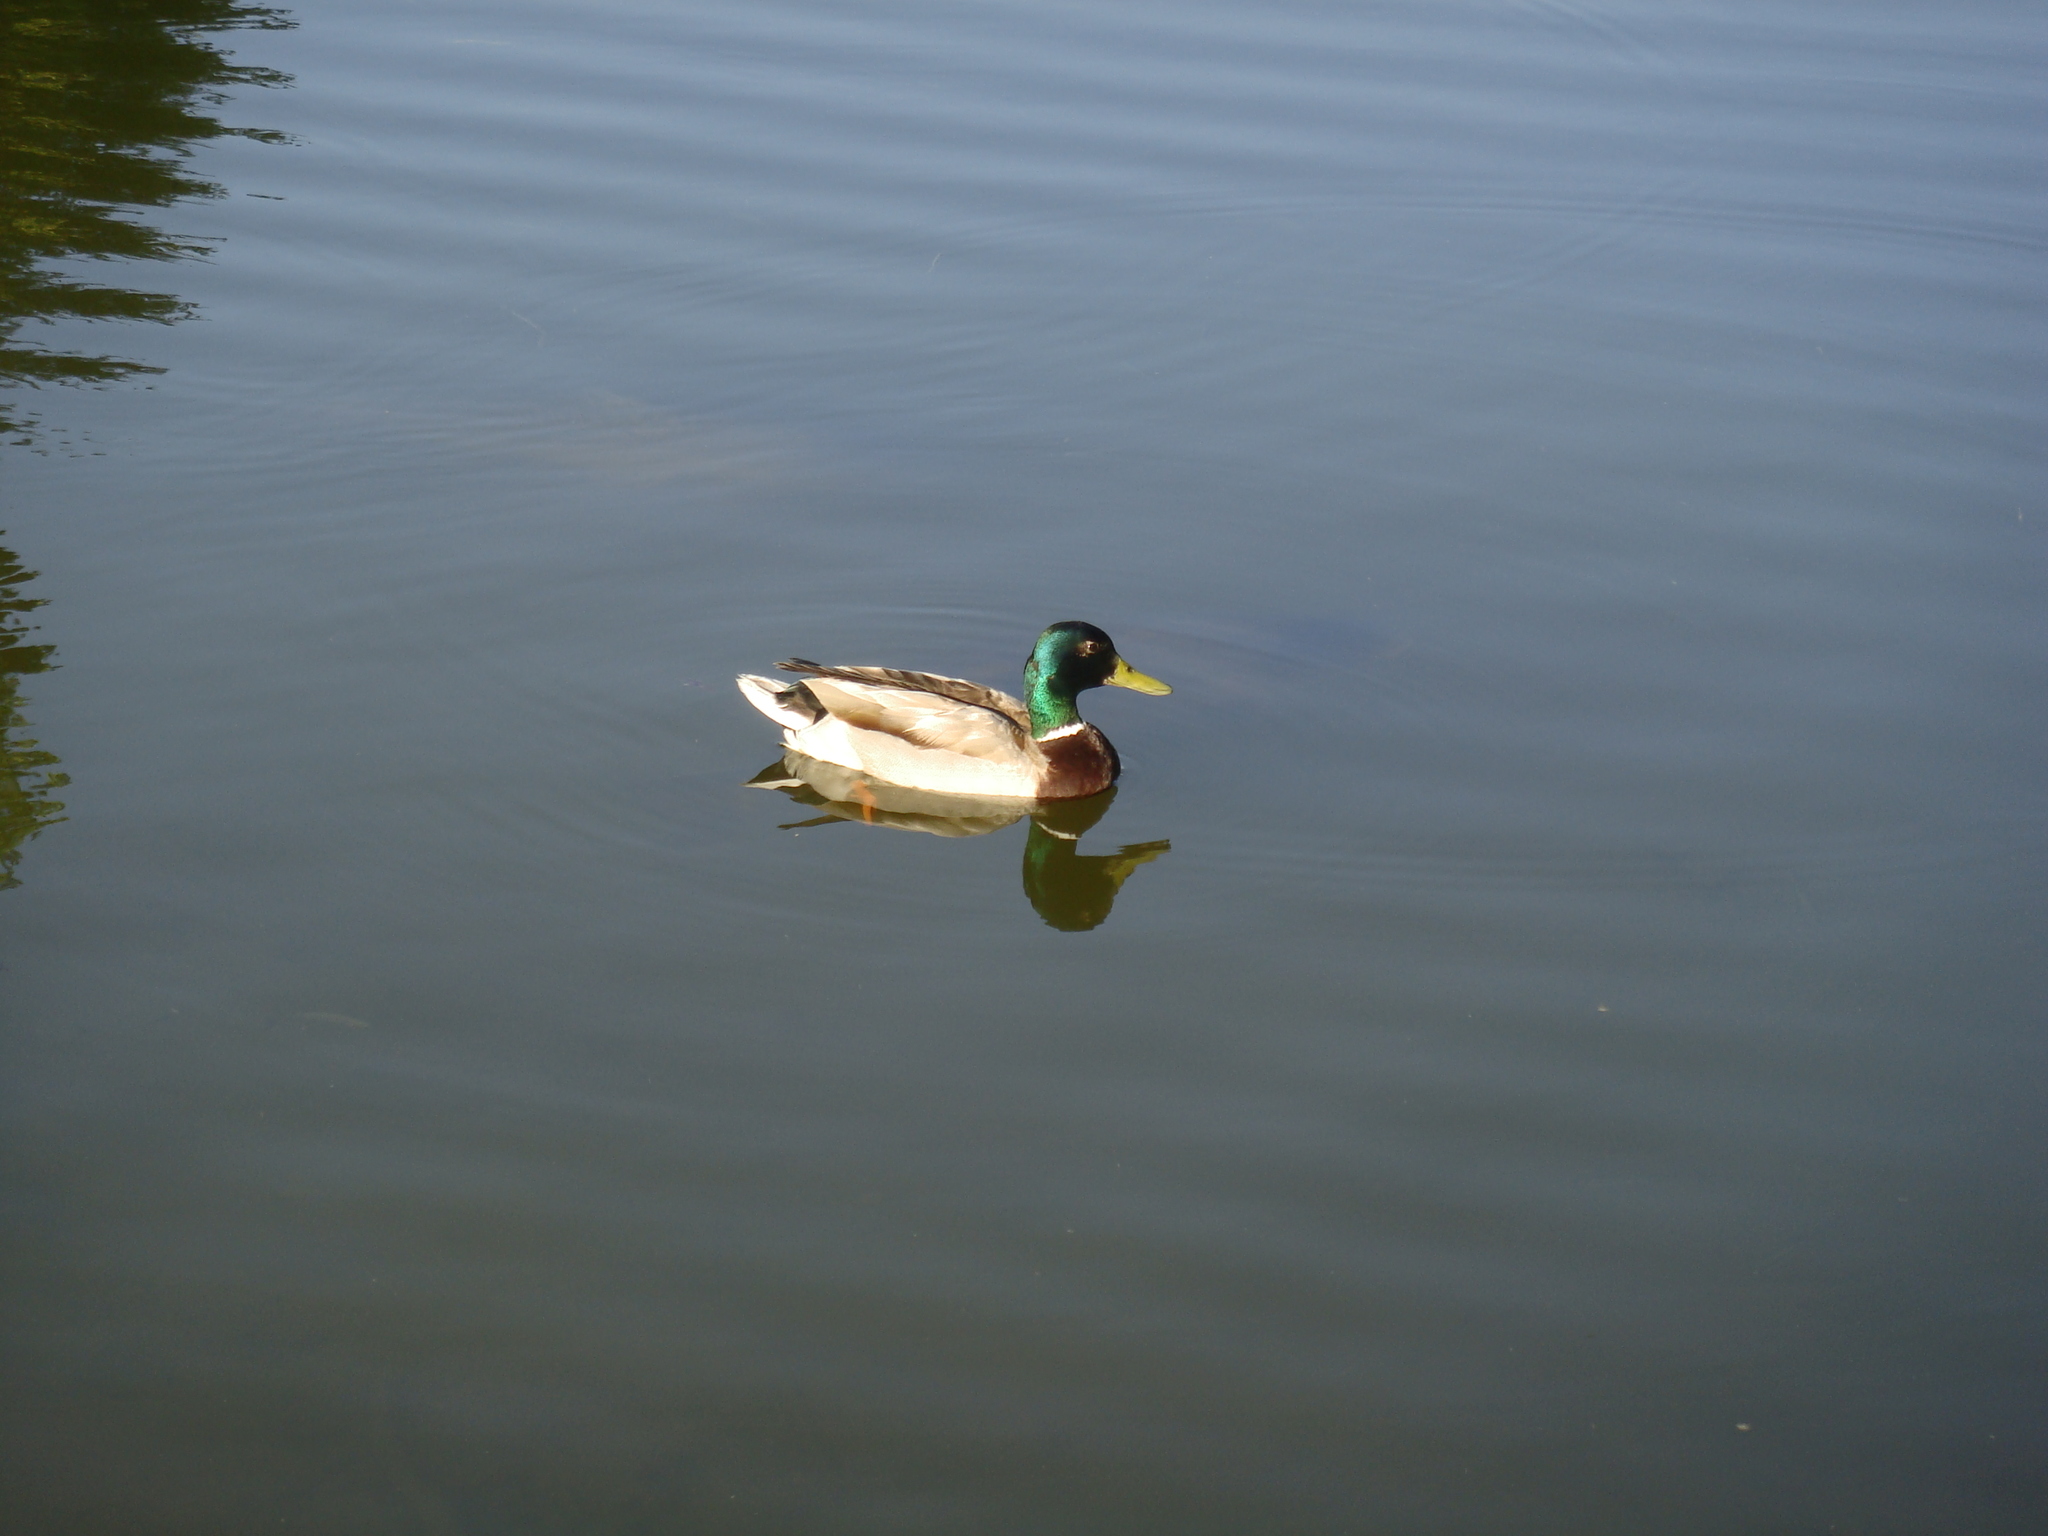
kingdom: Animalia
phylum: Chordata
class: Aves
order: Anseriformes
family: Anatidae
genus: Anas
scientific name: Anas platyrhynchos
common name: Mallard
